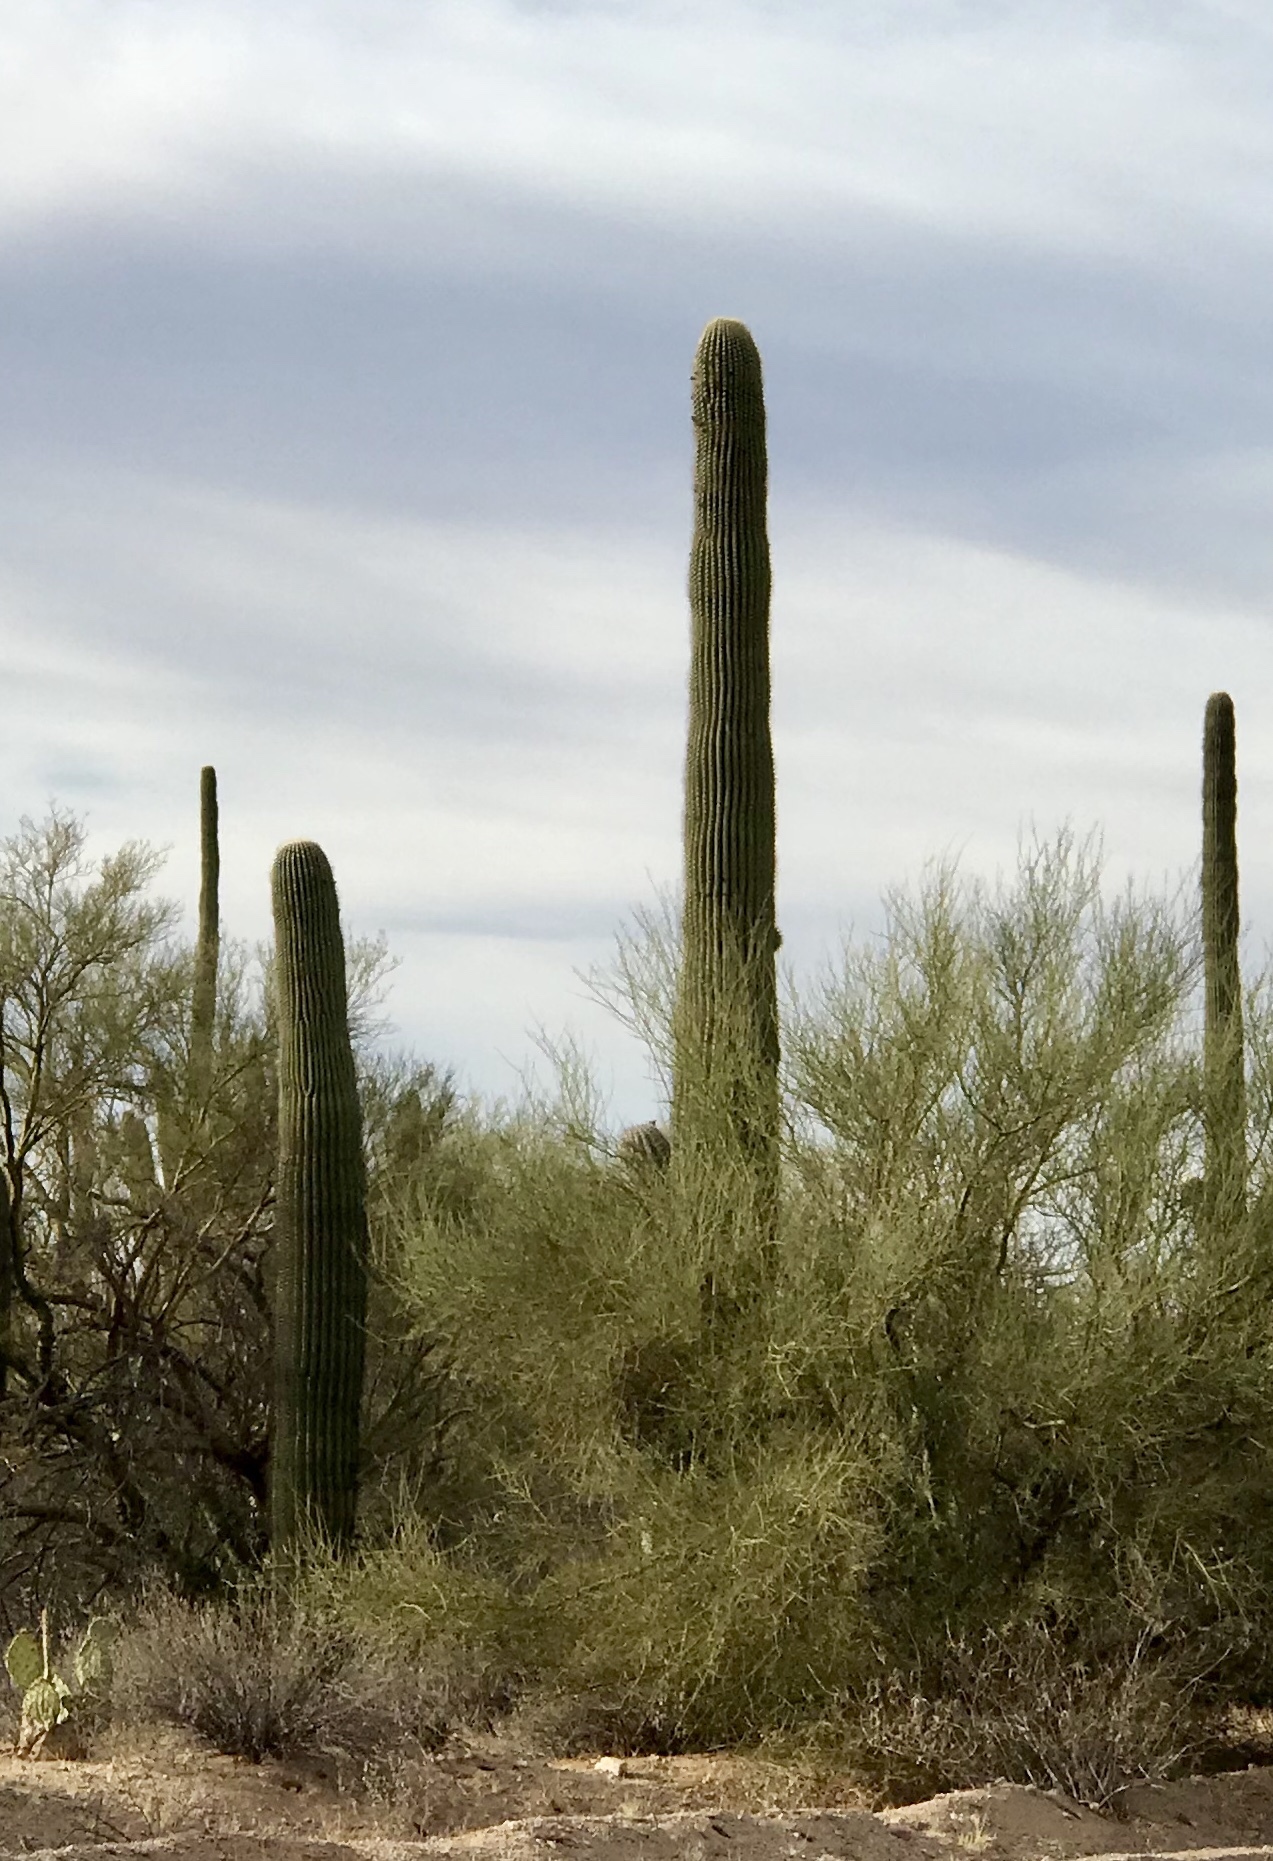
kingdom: Plantae
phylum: Tracheophyta
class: Magnoliopsida
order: Caryophyllales
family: Cactaceae
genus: Carnegiea
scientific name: Carnegiea gigantea
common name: Saguaro
